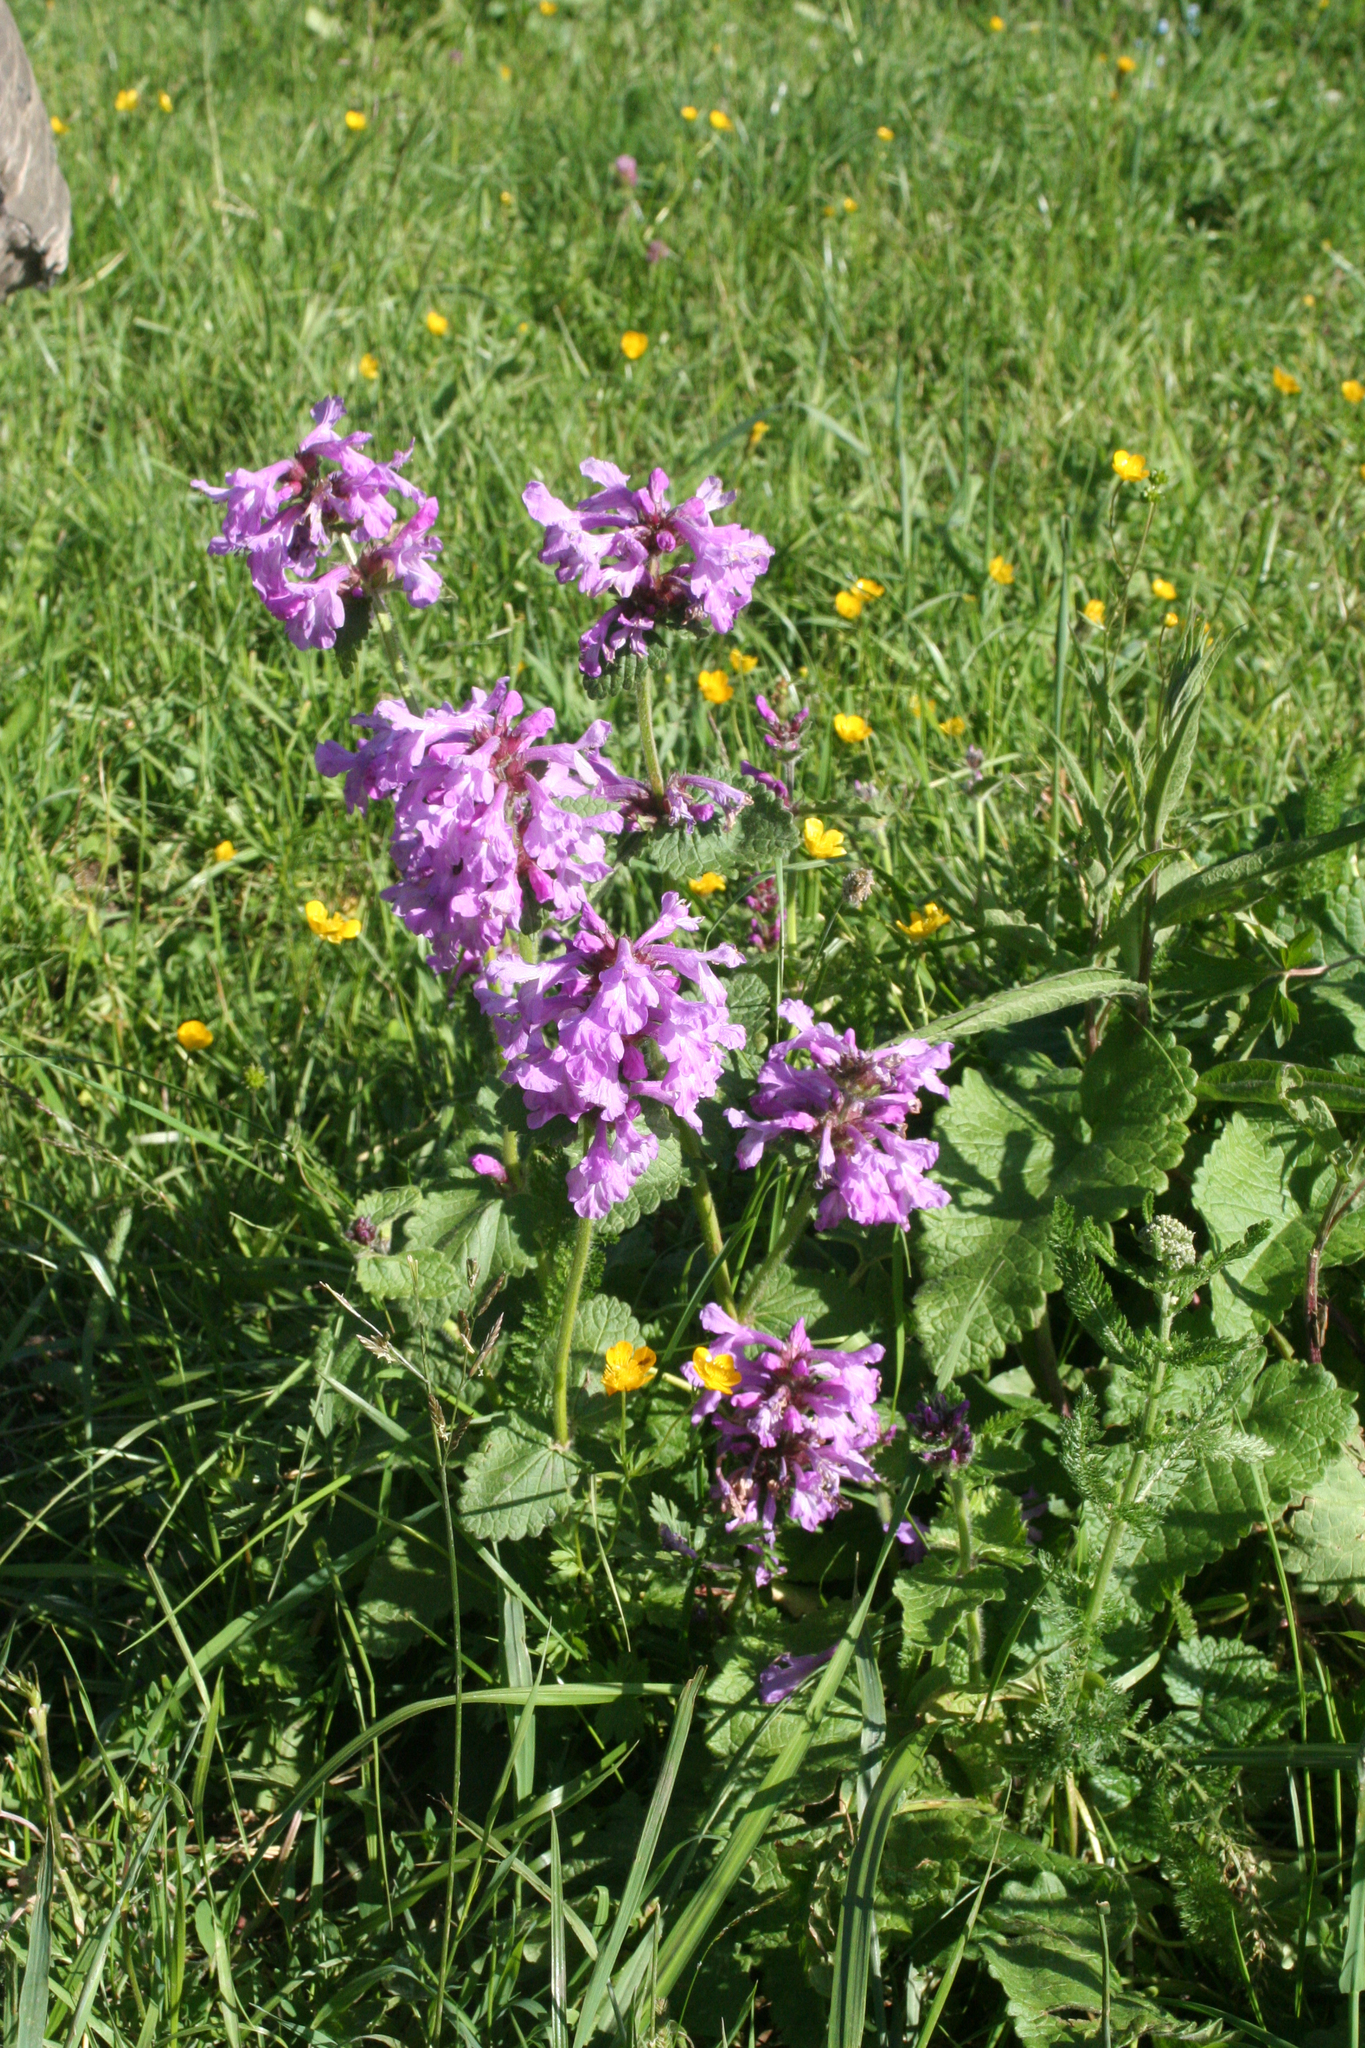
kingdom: Plantae
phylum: Tracheophyta
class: Magnoliopsida
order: Lamiales
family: Lamiaceae
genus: Betonica
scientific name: Betonica macrantha
